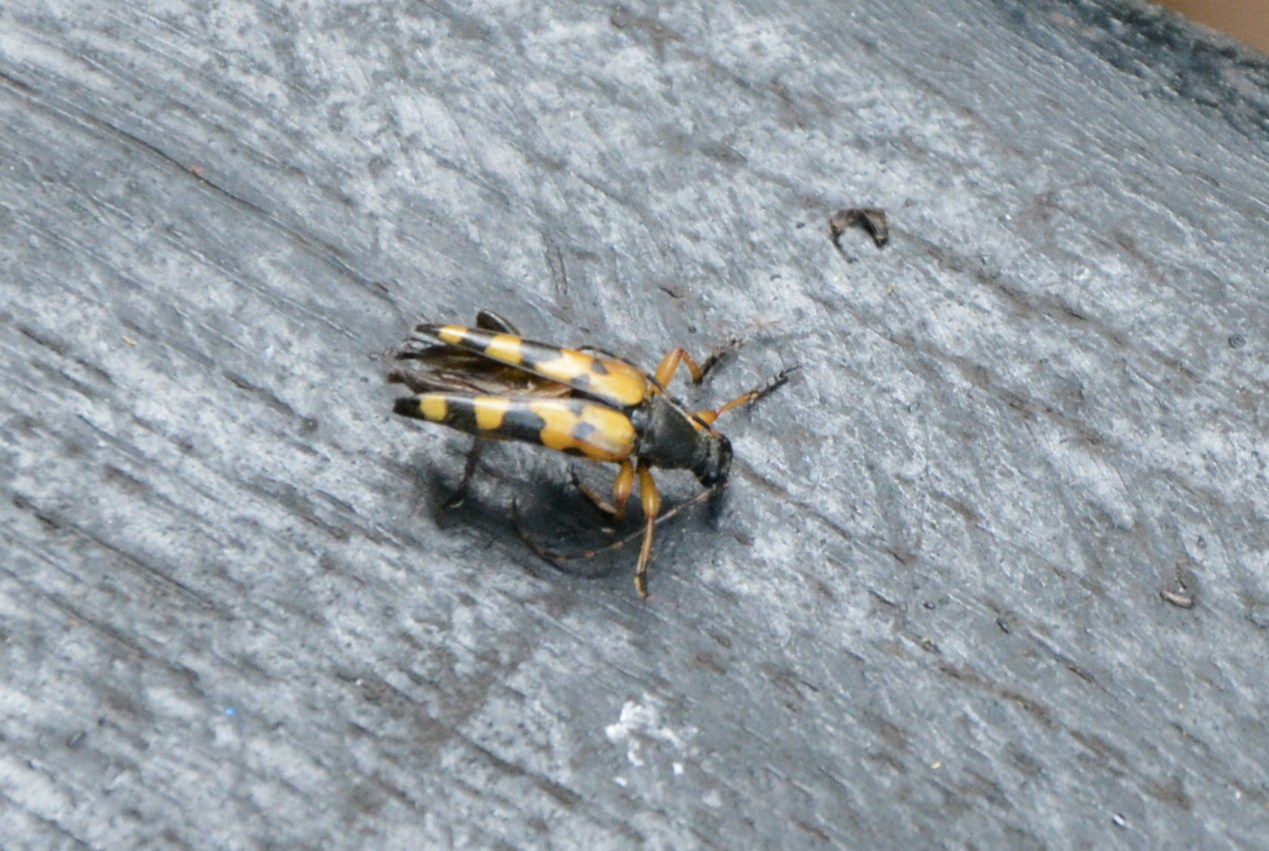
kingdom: Animalia
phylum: Arthropoda
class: Insecta
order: Coleoptera
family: Cerambycidae
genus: Rutpela
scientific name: Rutpela maculata
